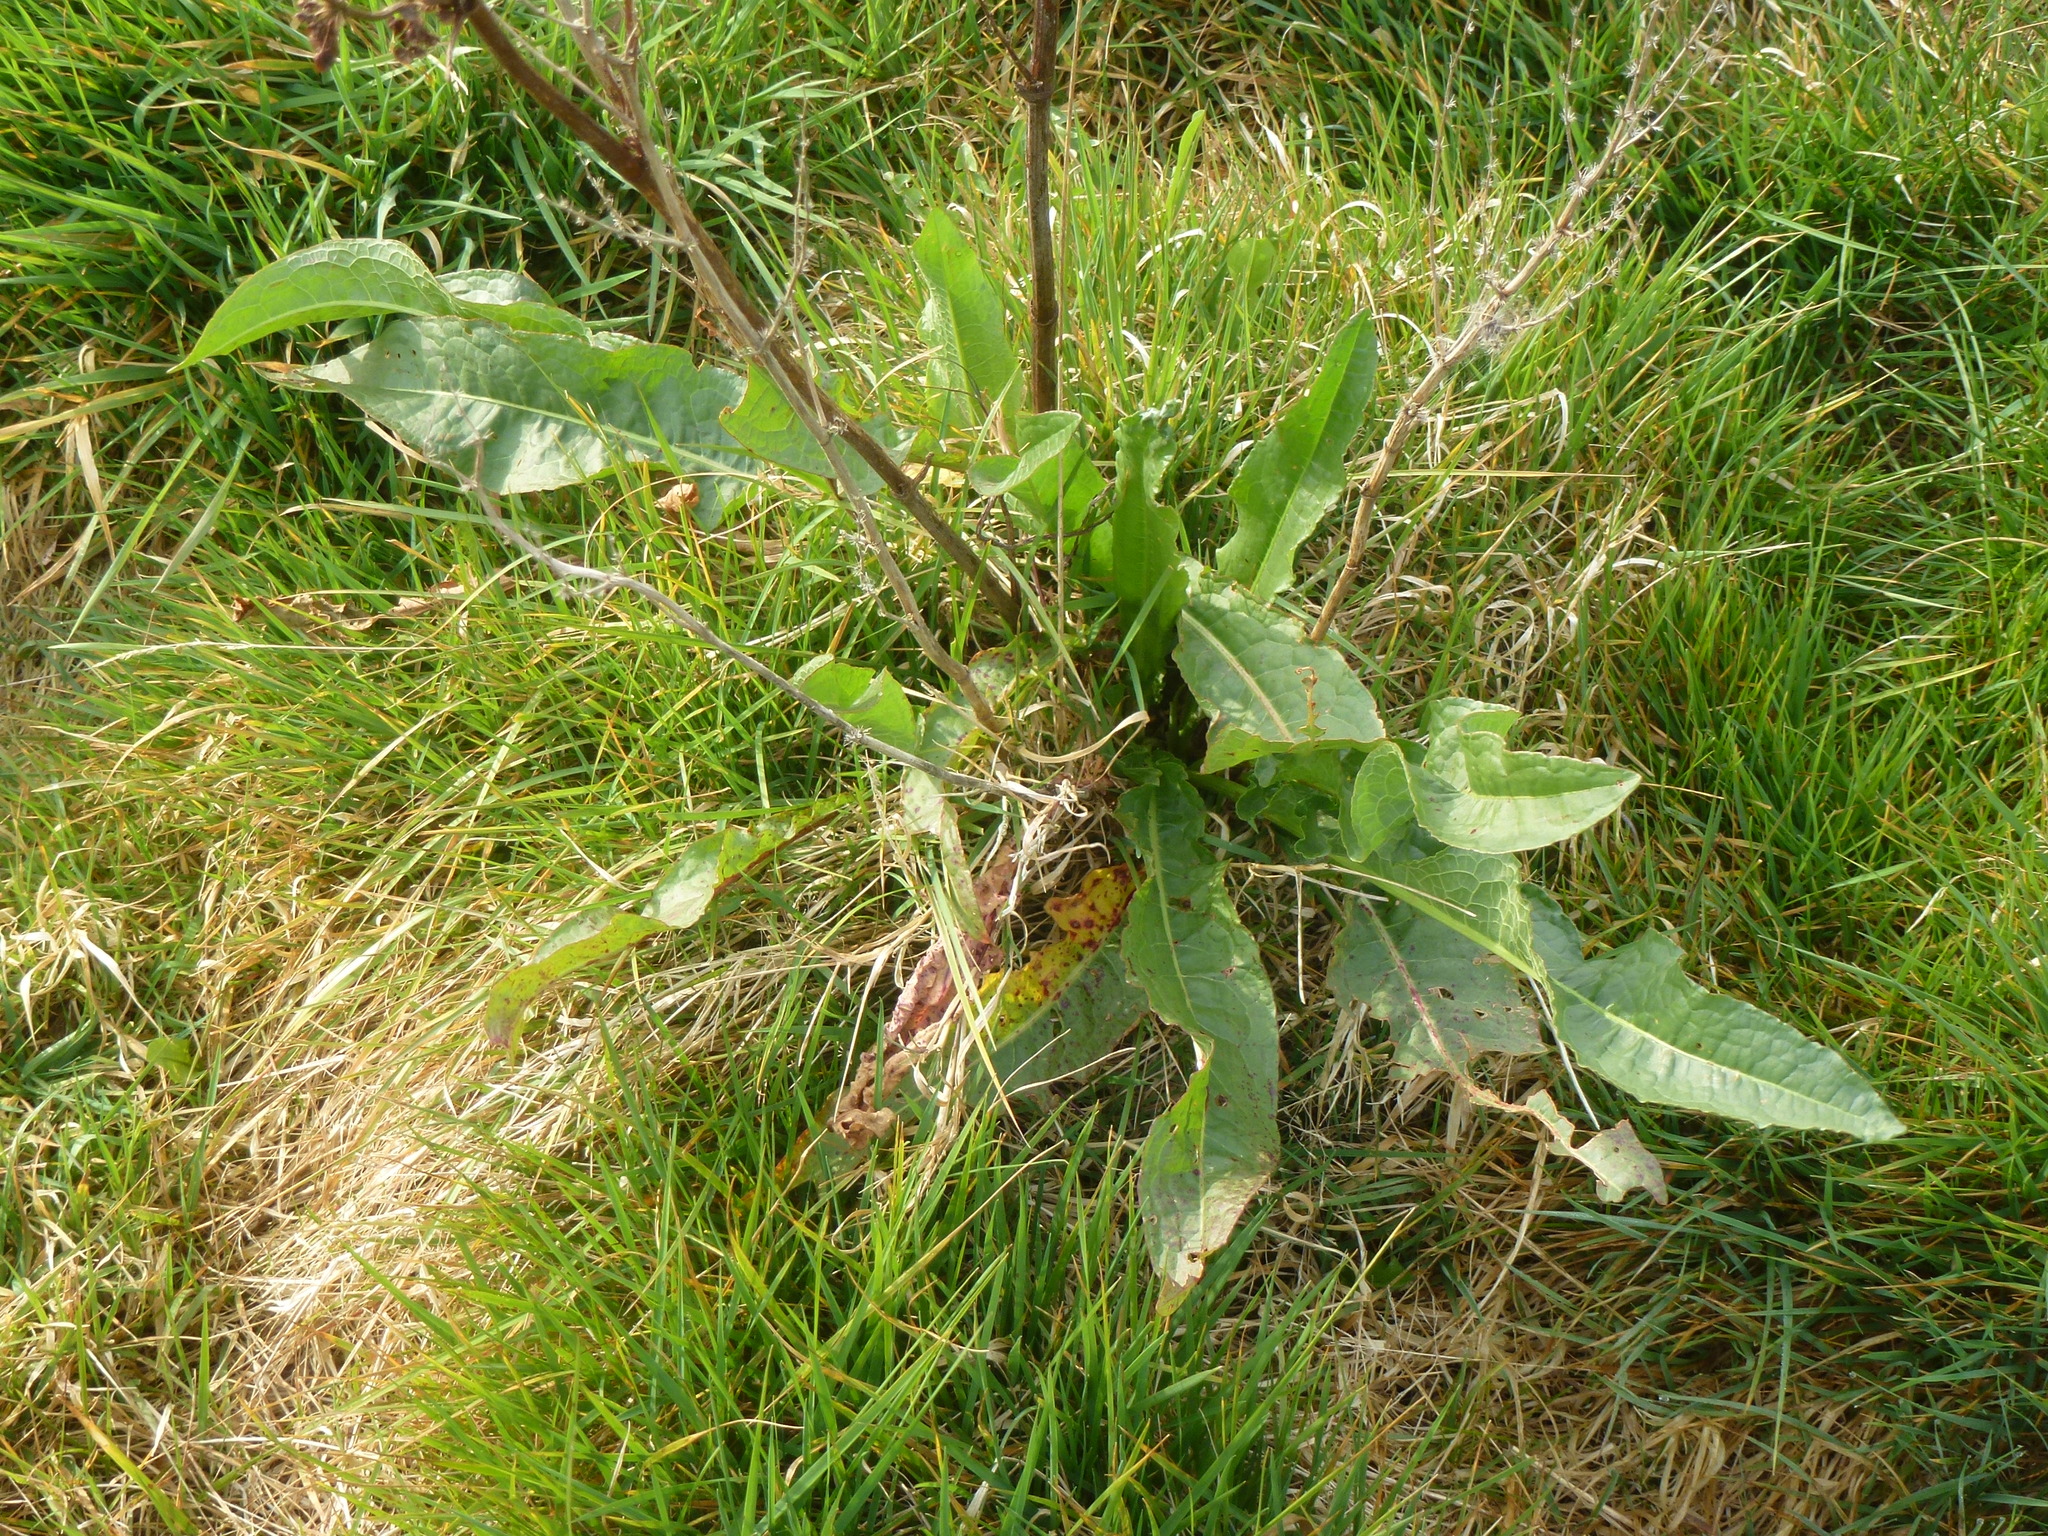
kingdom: Plantae
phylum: Tracheophyta
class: Magnoliopsida
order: Caryophyllales
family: Polygonaceae
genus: Rumex
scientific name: Rumex crispus
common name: Curled dock
